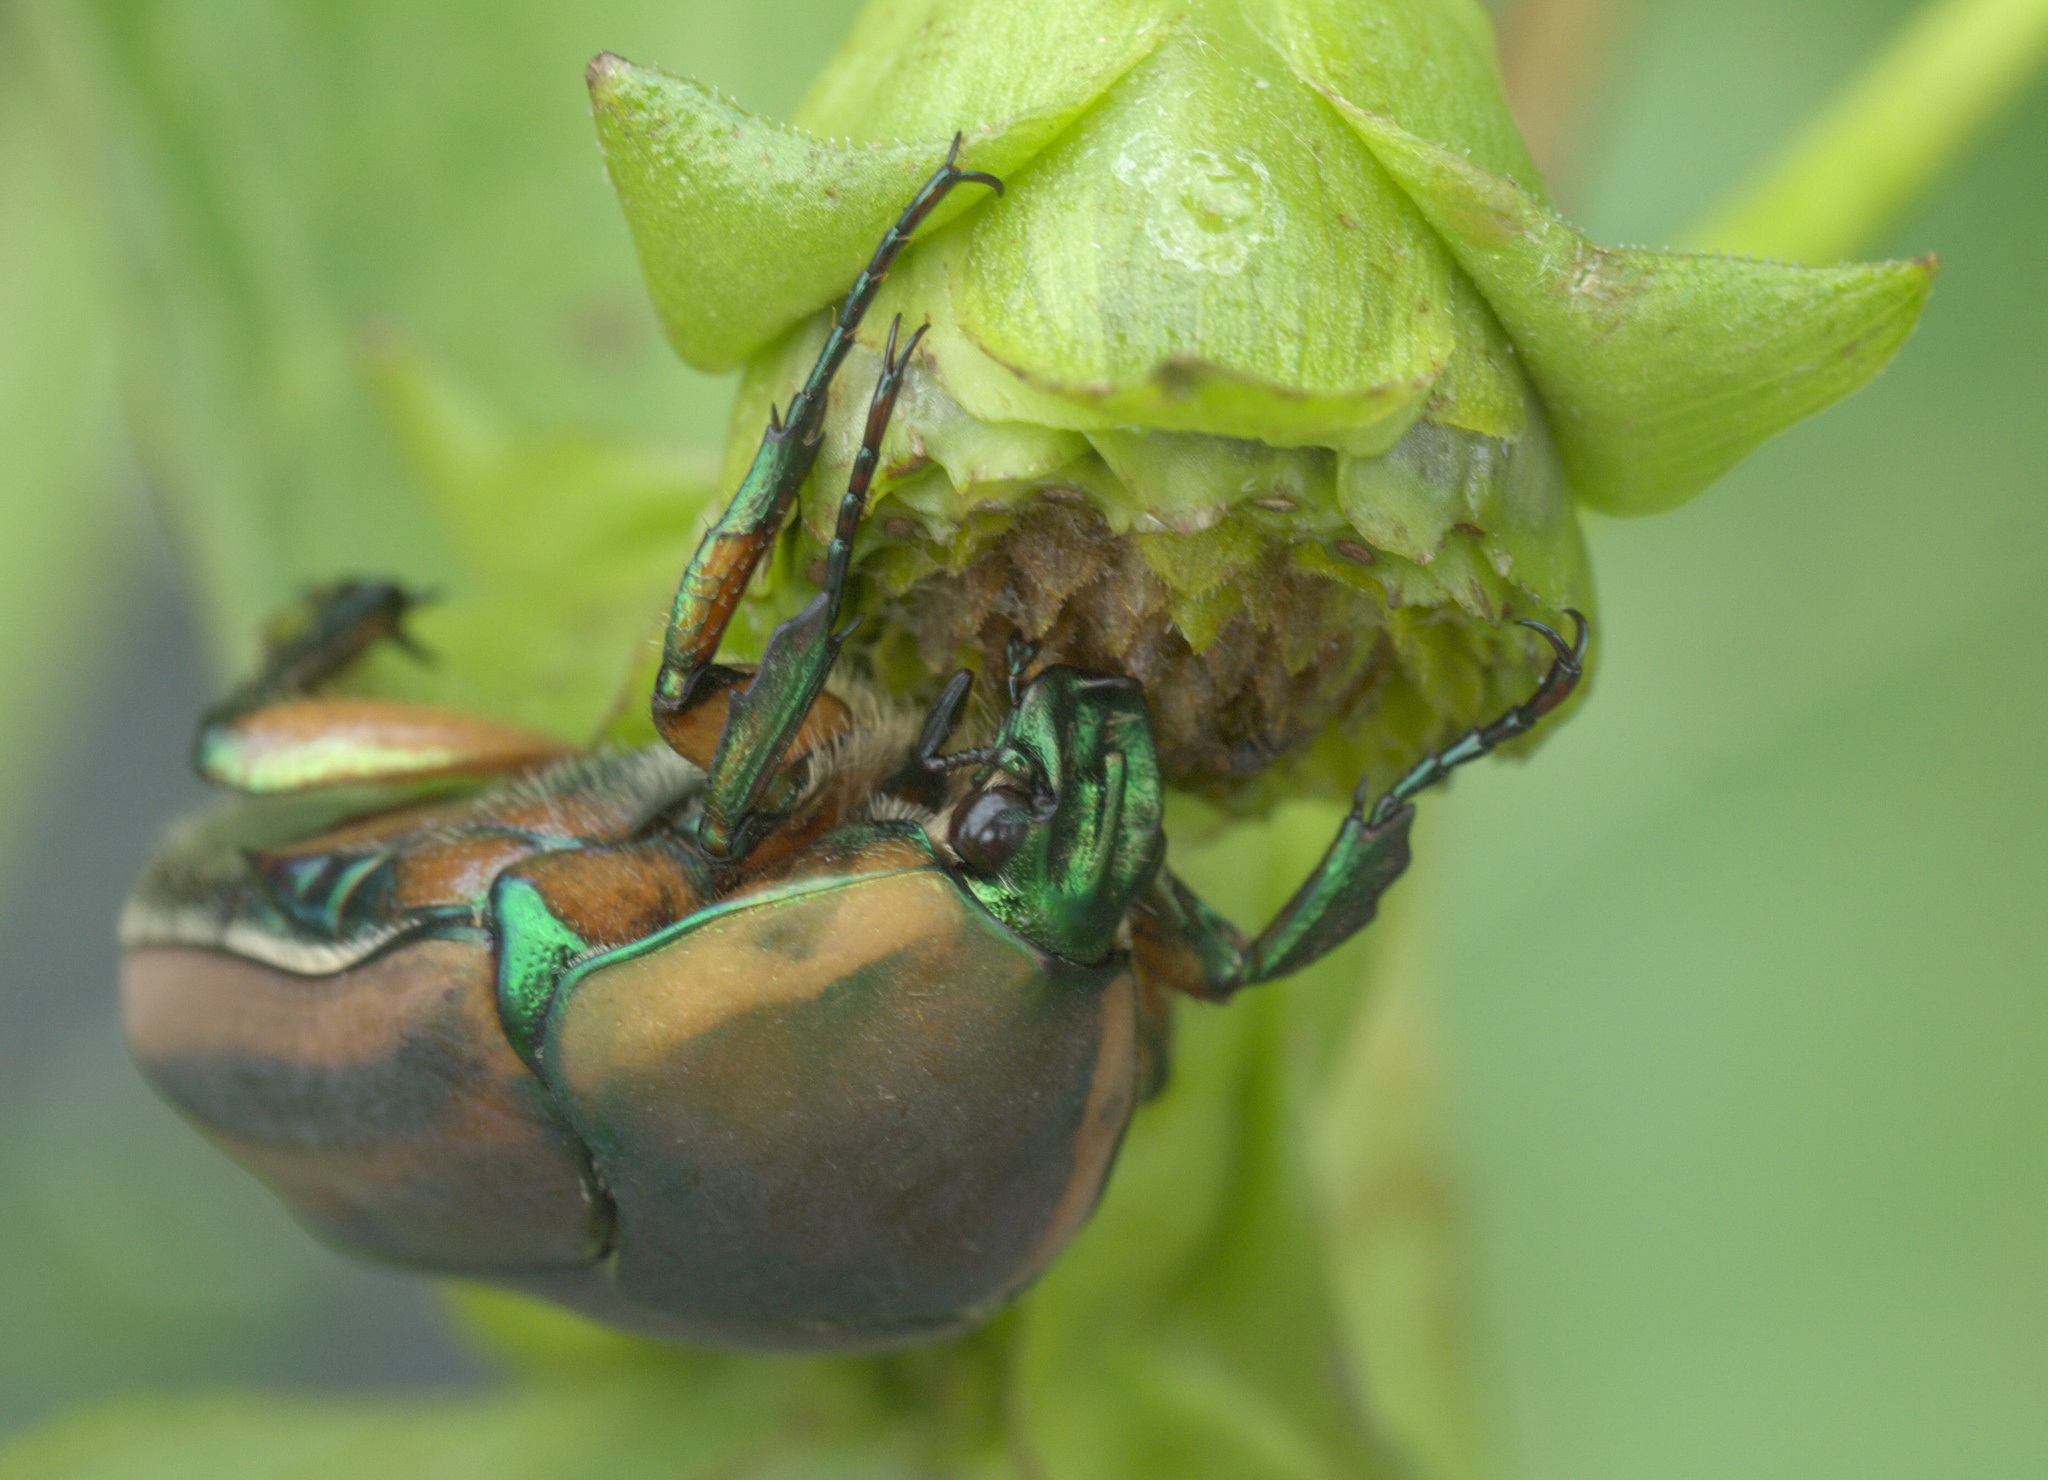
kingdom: Animalia
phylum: Arthropoda
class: Insecta
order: Coleoptera
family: Scarabaeidae
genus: Cotinis
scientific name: Cotinis nitida
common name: Common green june beetle
